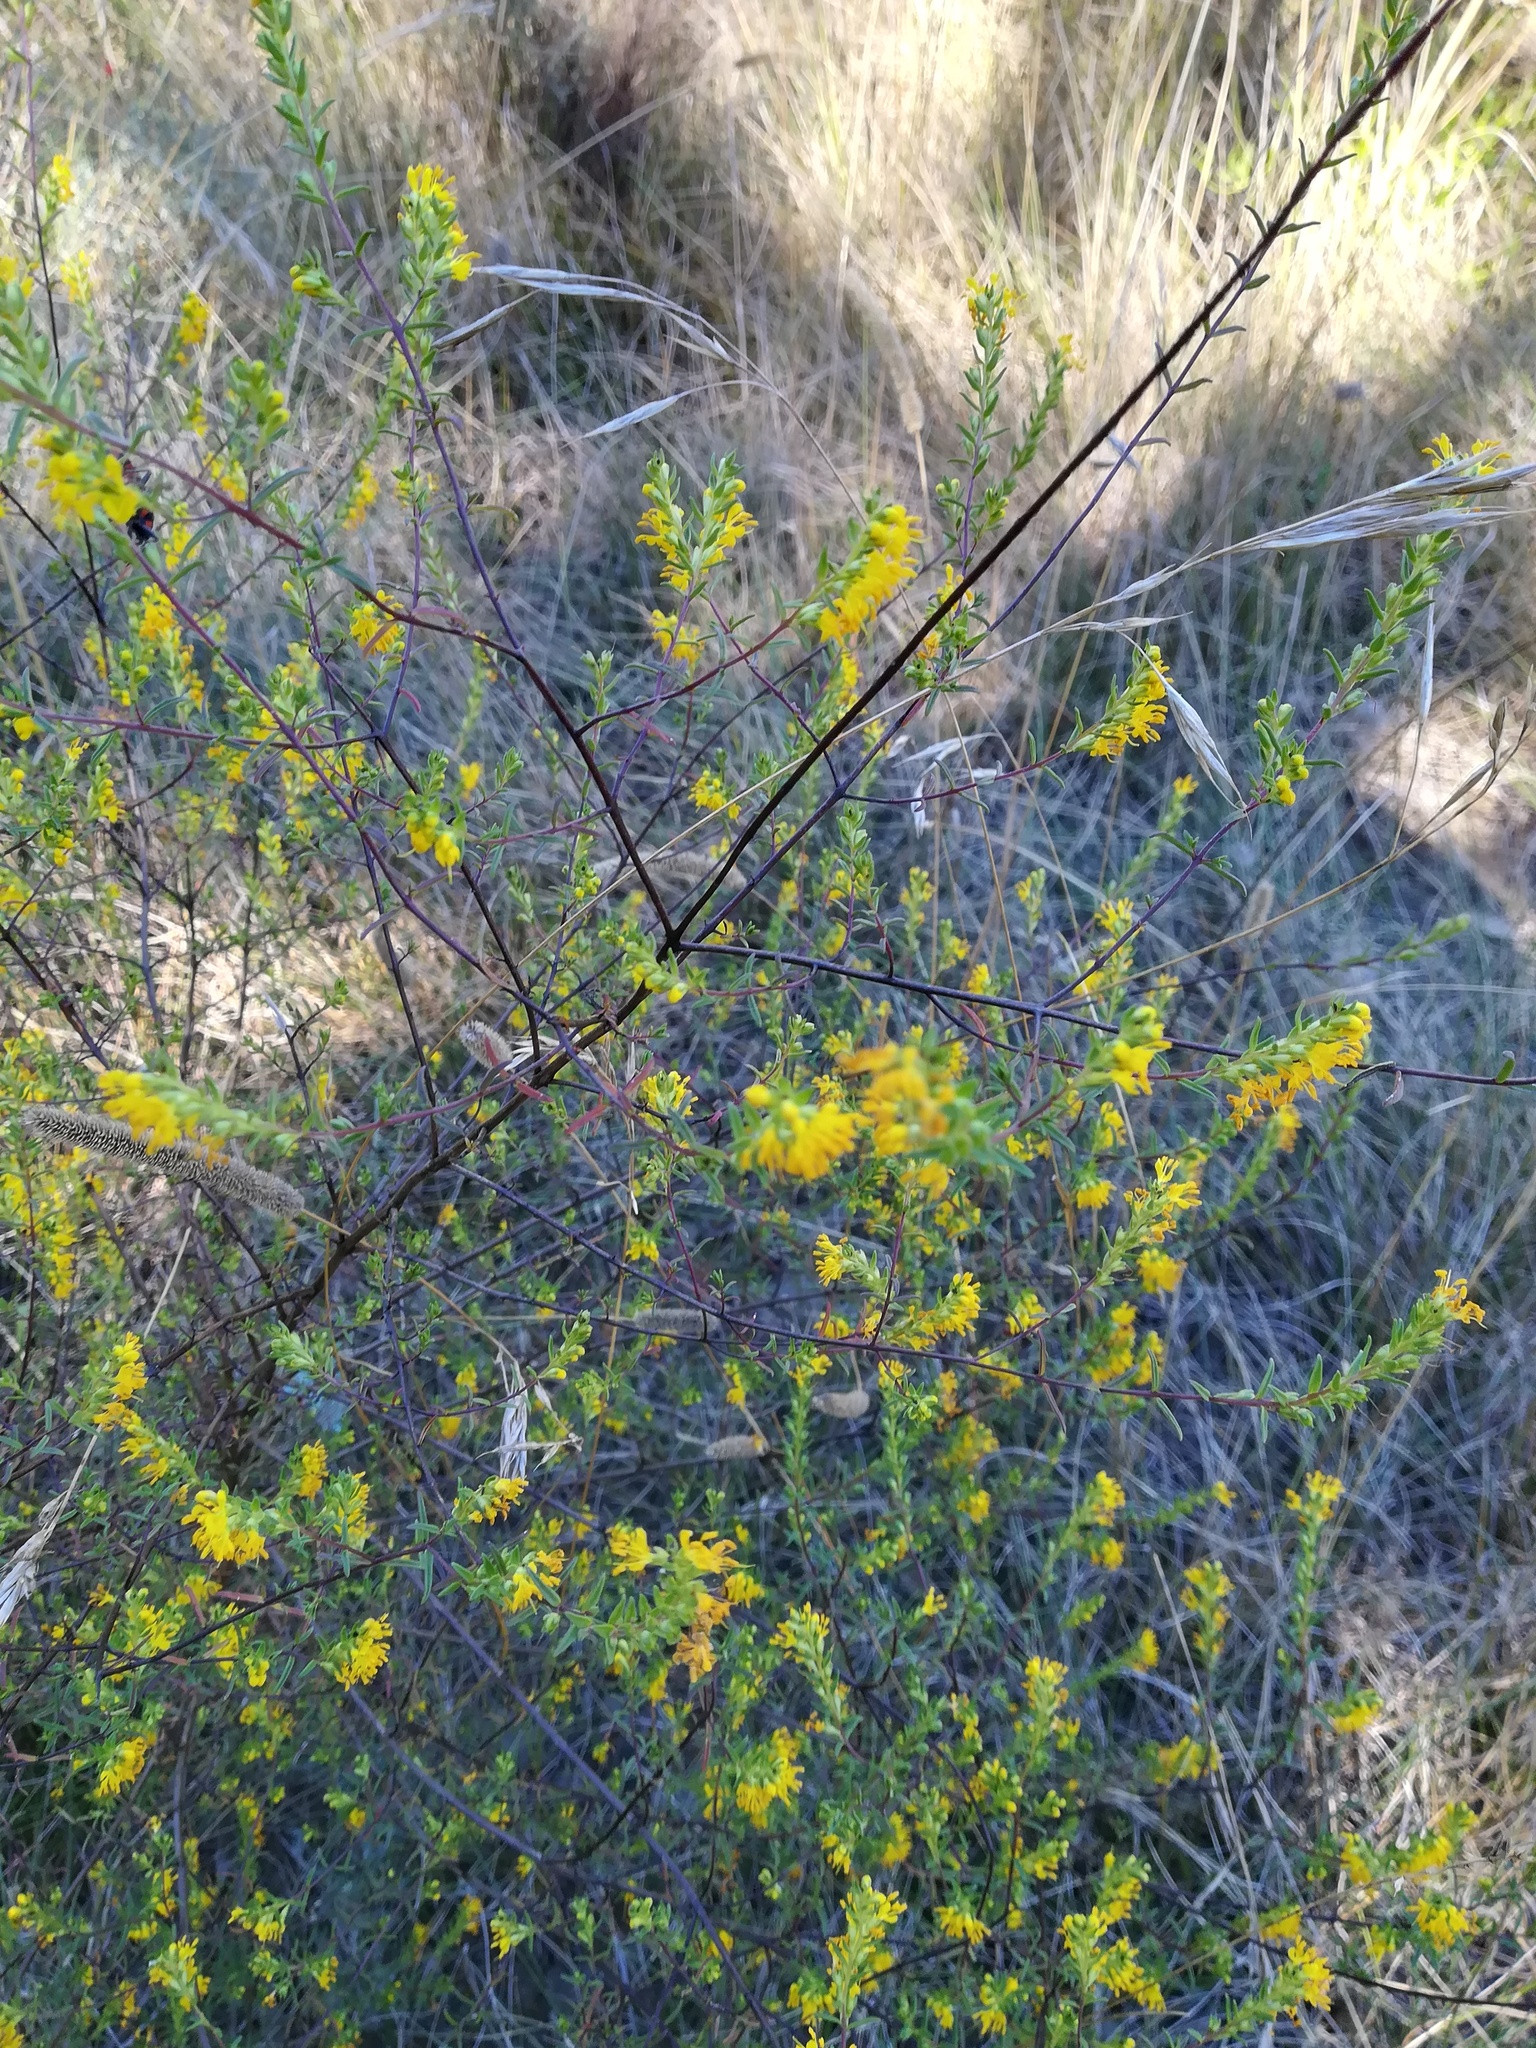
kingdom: Plantae
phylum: Tracheophyta
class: Magnoliopsida
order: Lamiales
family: Orobanchaceae
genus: Odontites
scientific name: Odontites luteus
